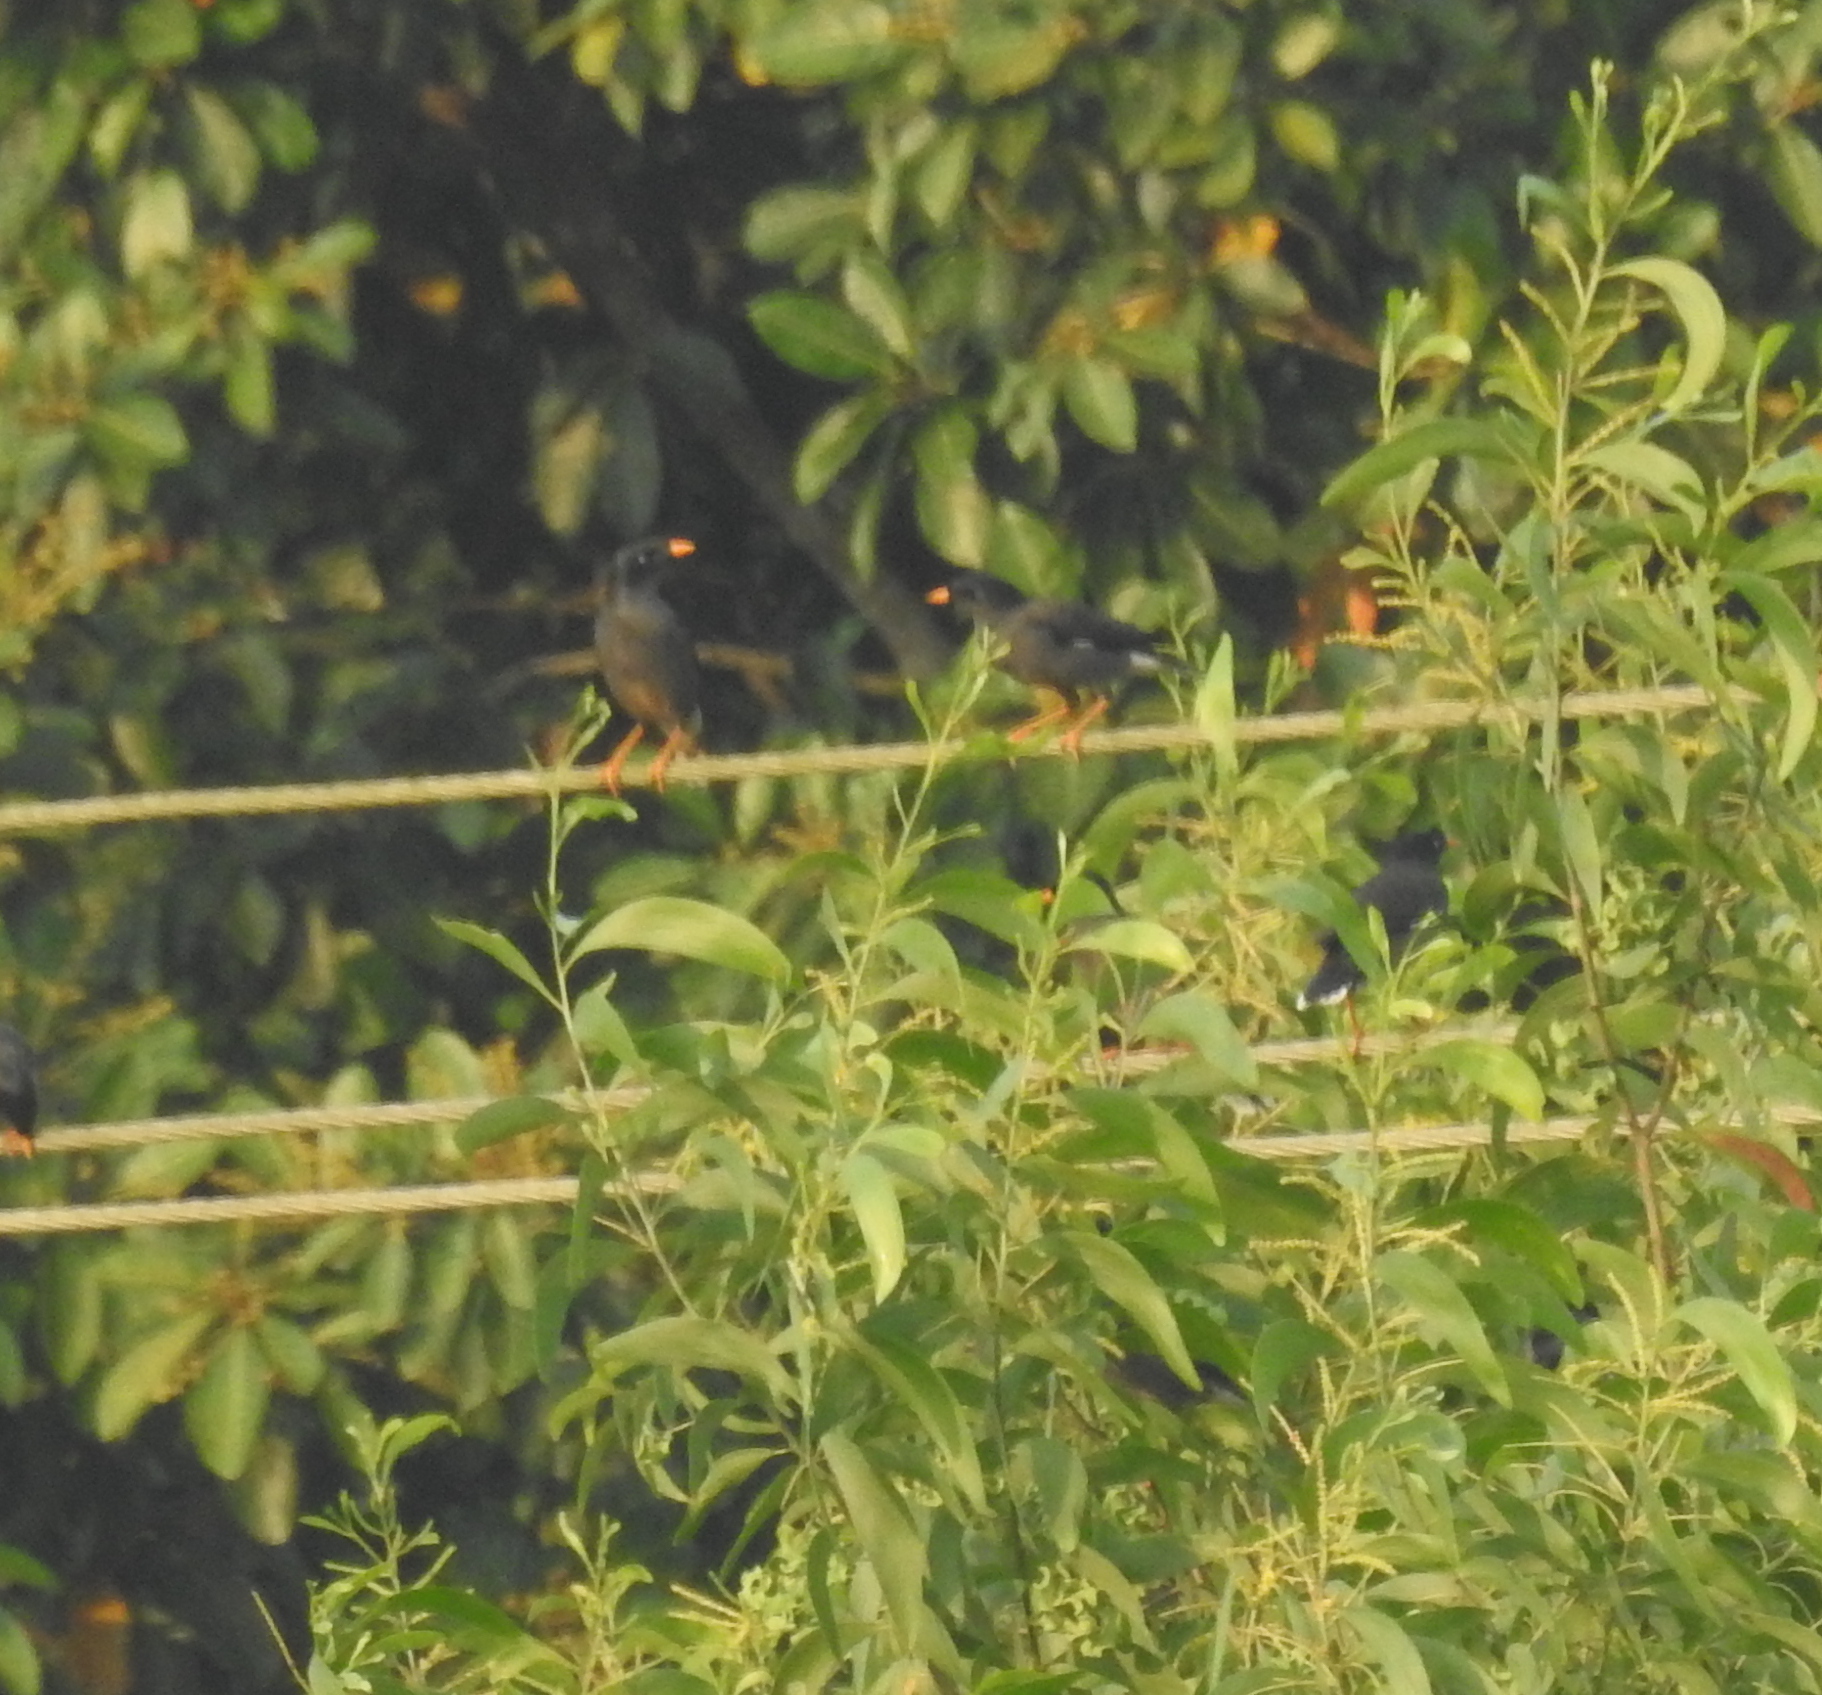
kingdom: Animalia
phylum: Chordata
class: Aves
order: Passeriformes
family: Sturnidae
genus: Acridotheres
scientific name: Acridotheres fuscus
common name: Jungle myna
